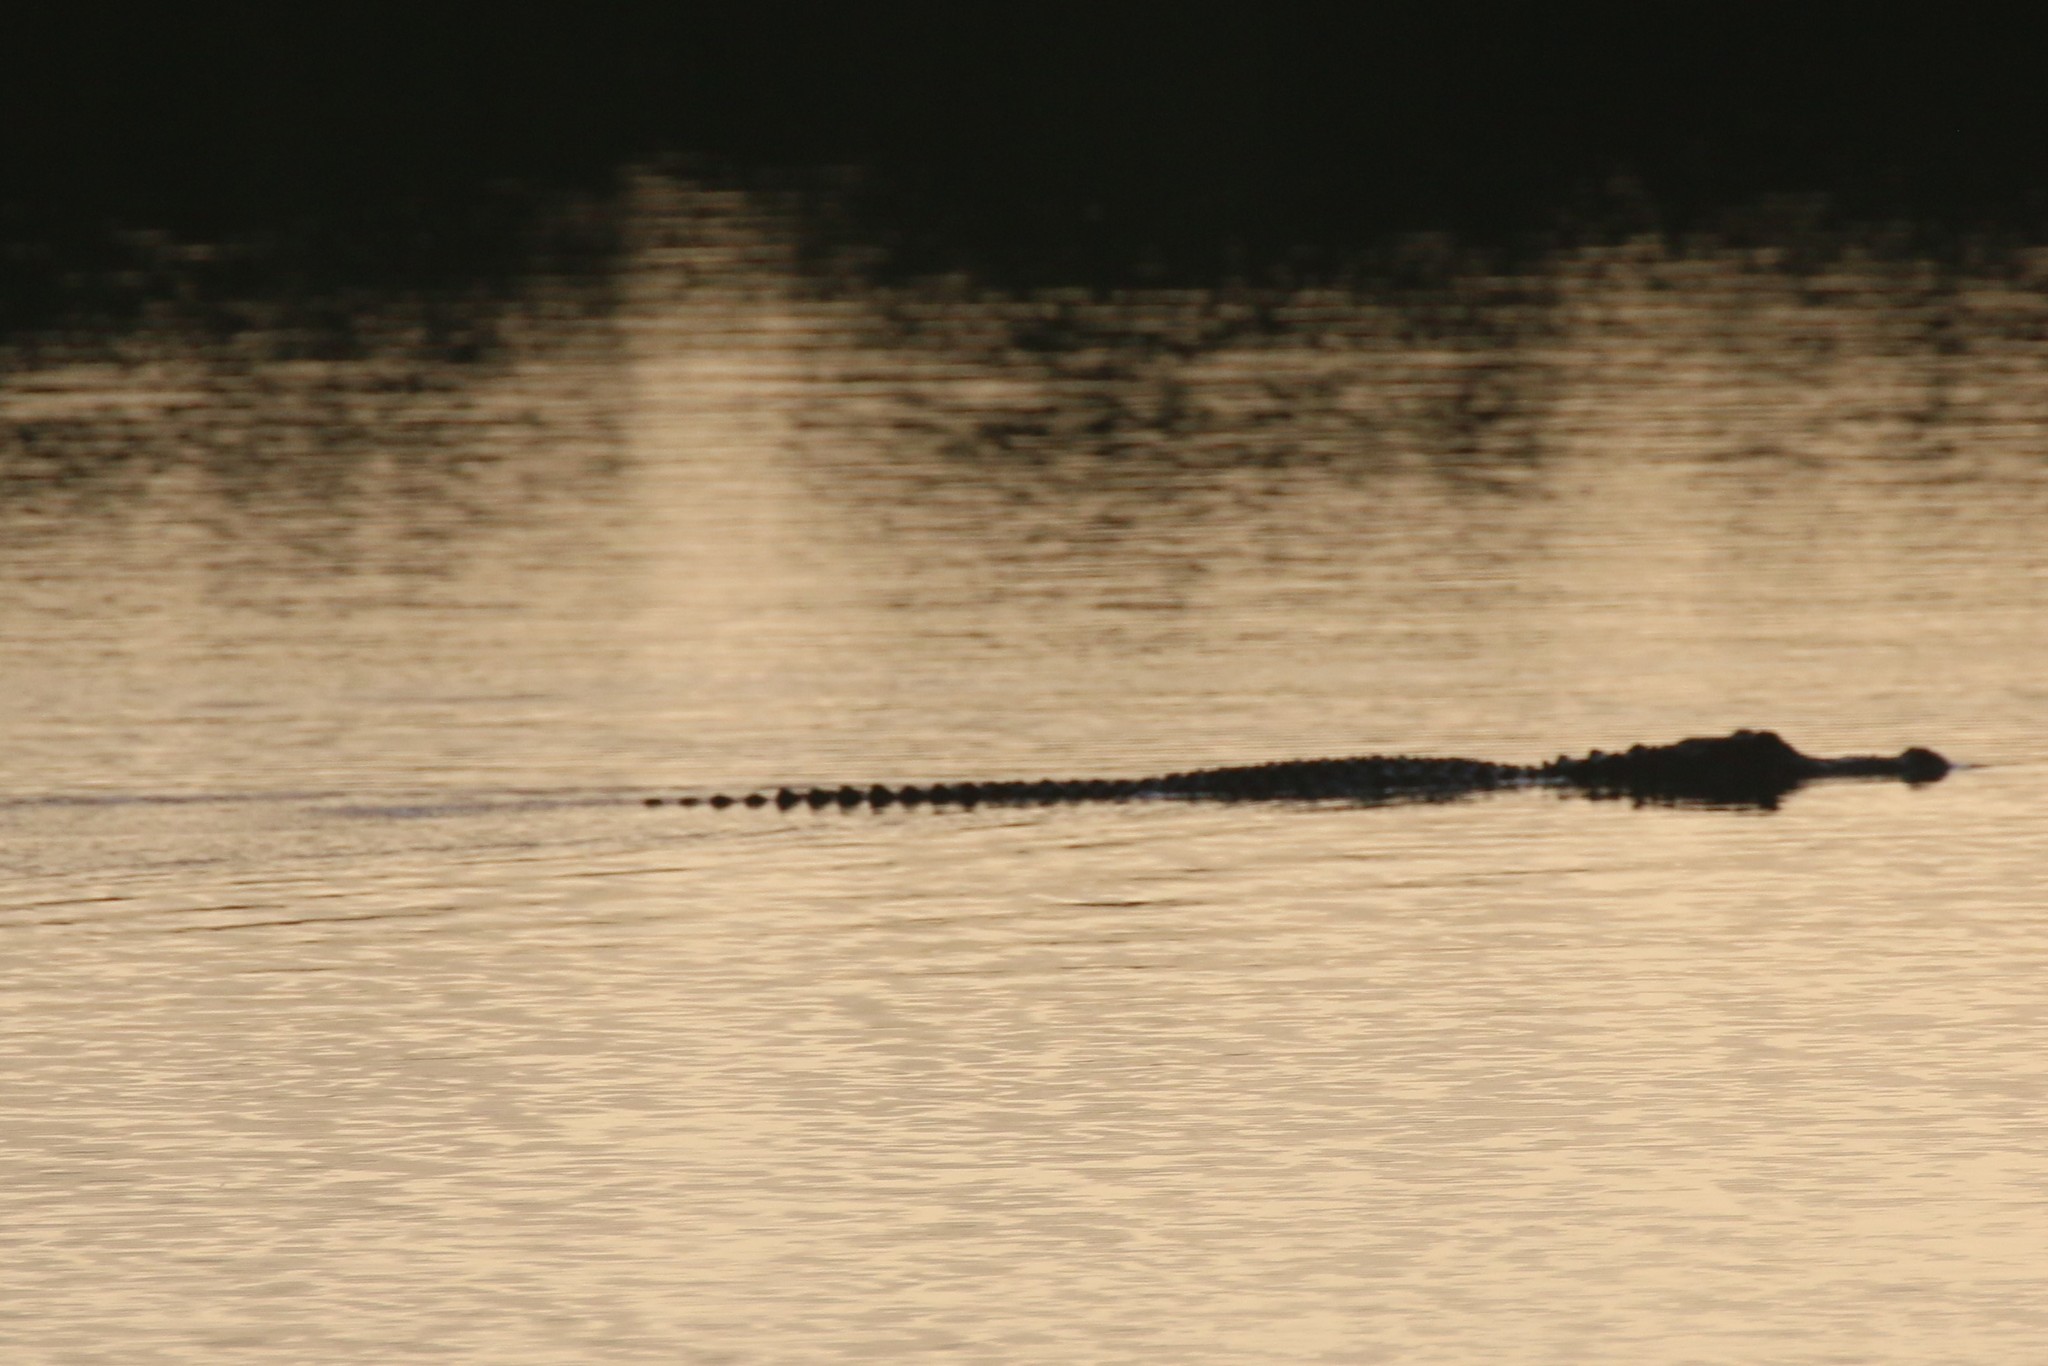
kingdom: Animalia
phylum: Chordata
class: Crocodylia
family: Alligatoridae
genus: Alligator
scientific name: Alligator mississippiensis
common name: American alligator
